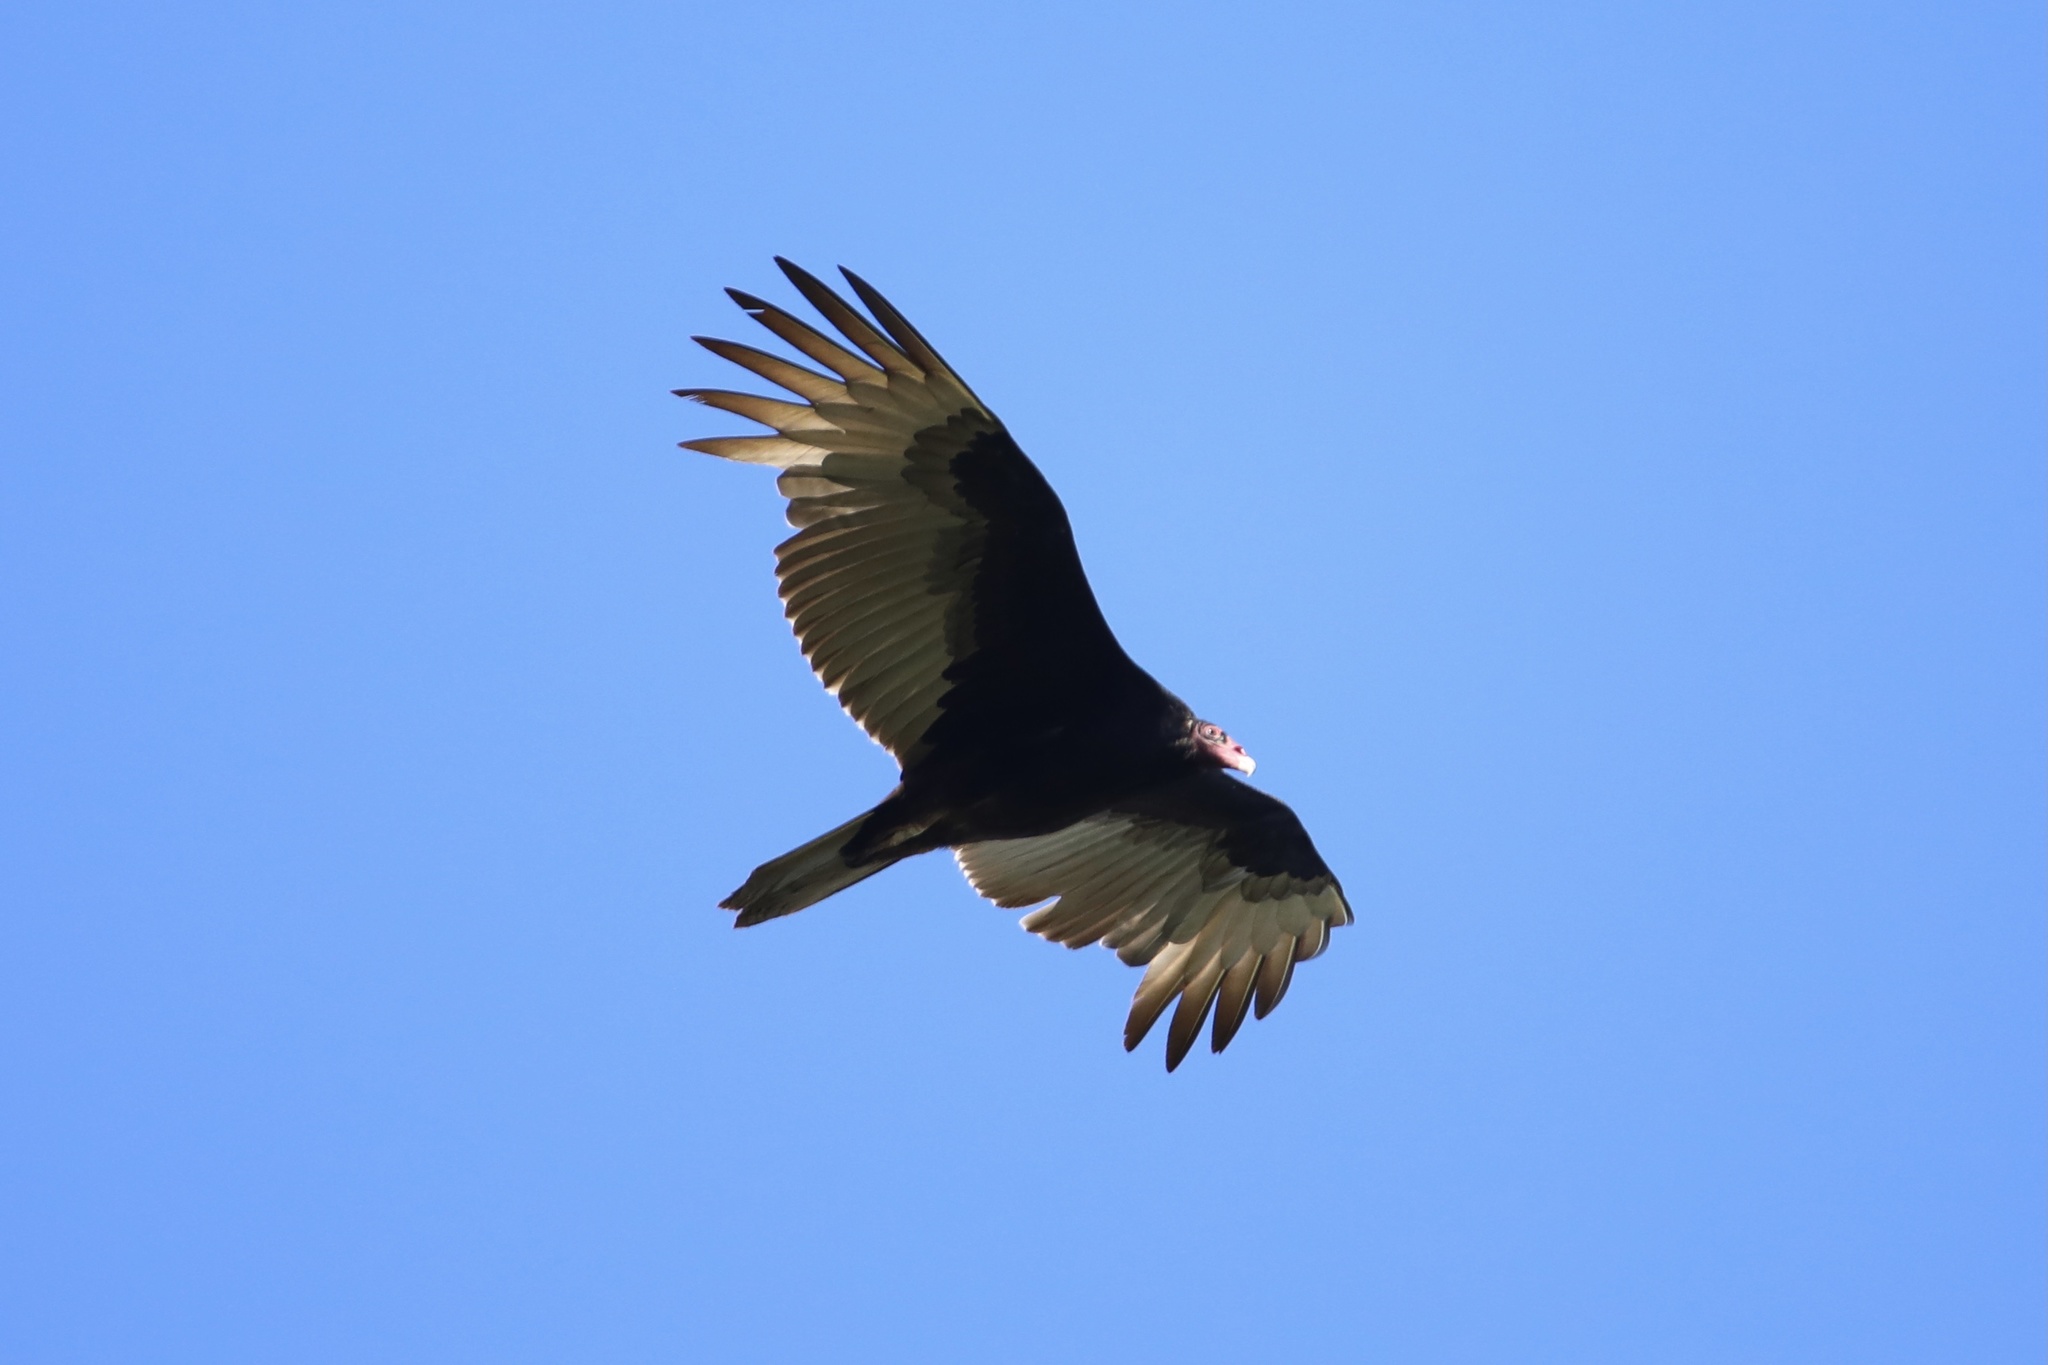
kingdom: Animalia
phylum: Chordata
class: Aves
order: Accipitriformes
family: Cathartidae
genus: Cathartes
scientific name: Cathartes aura
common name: Turkey vulture
